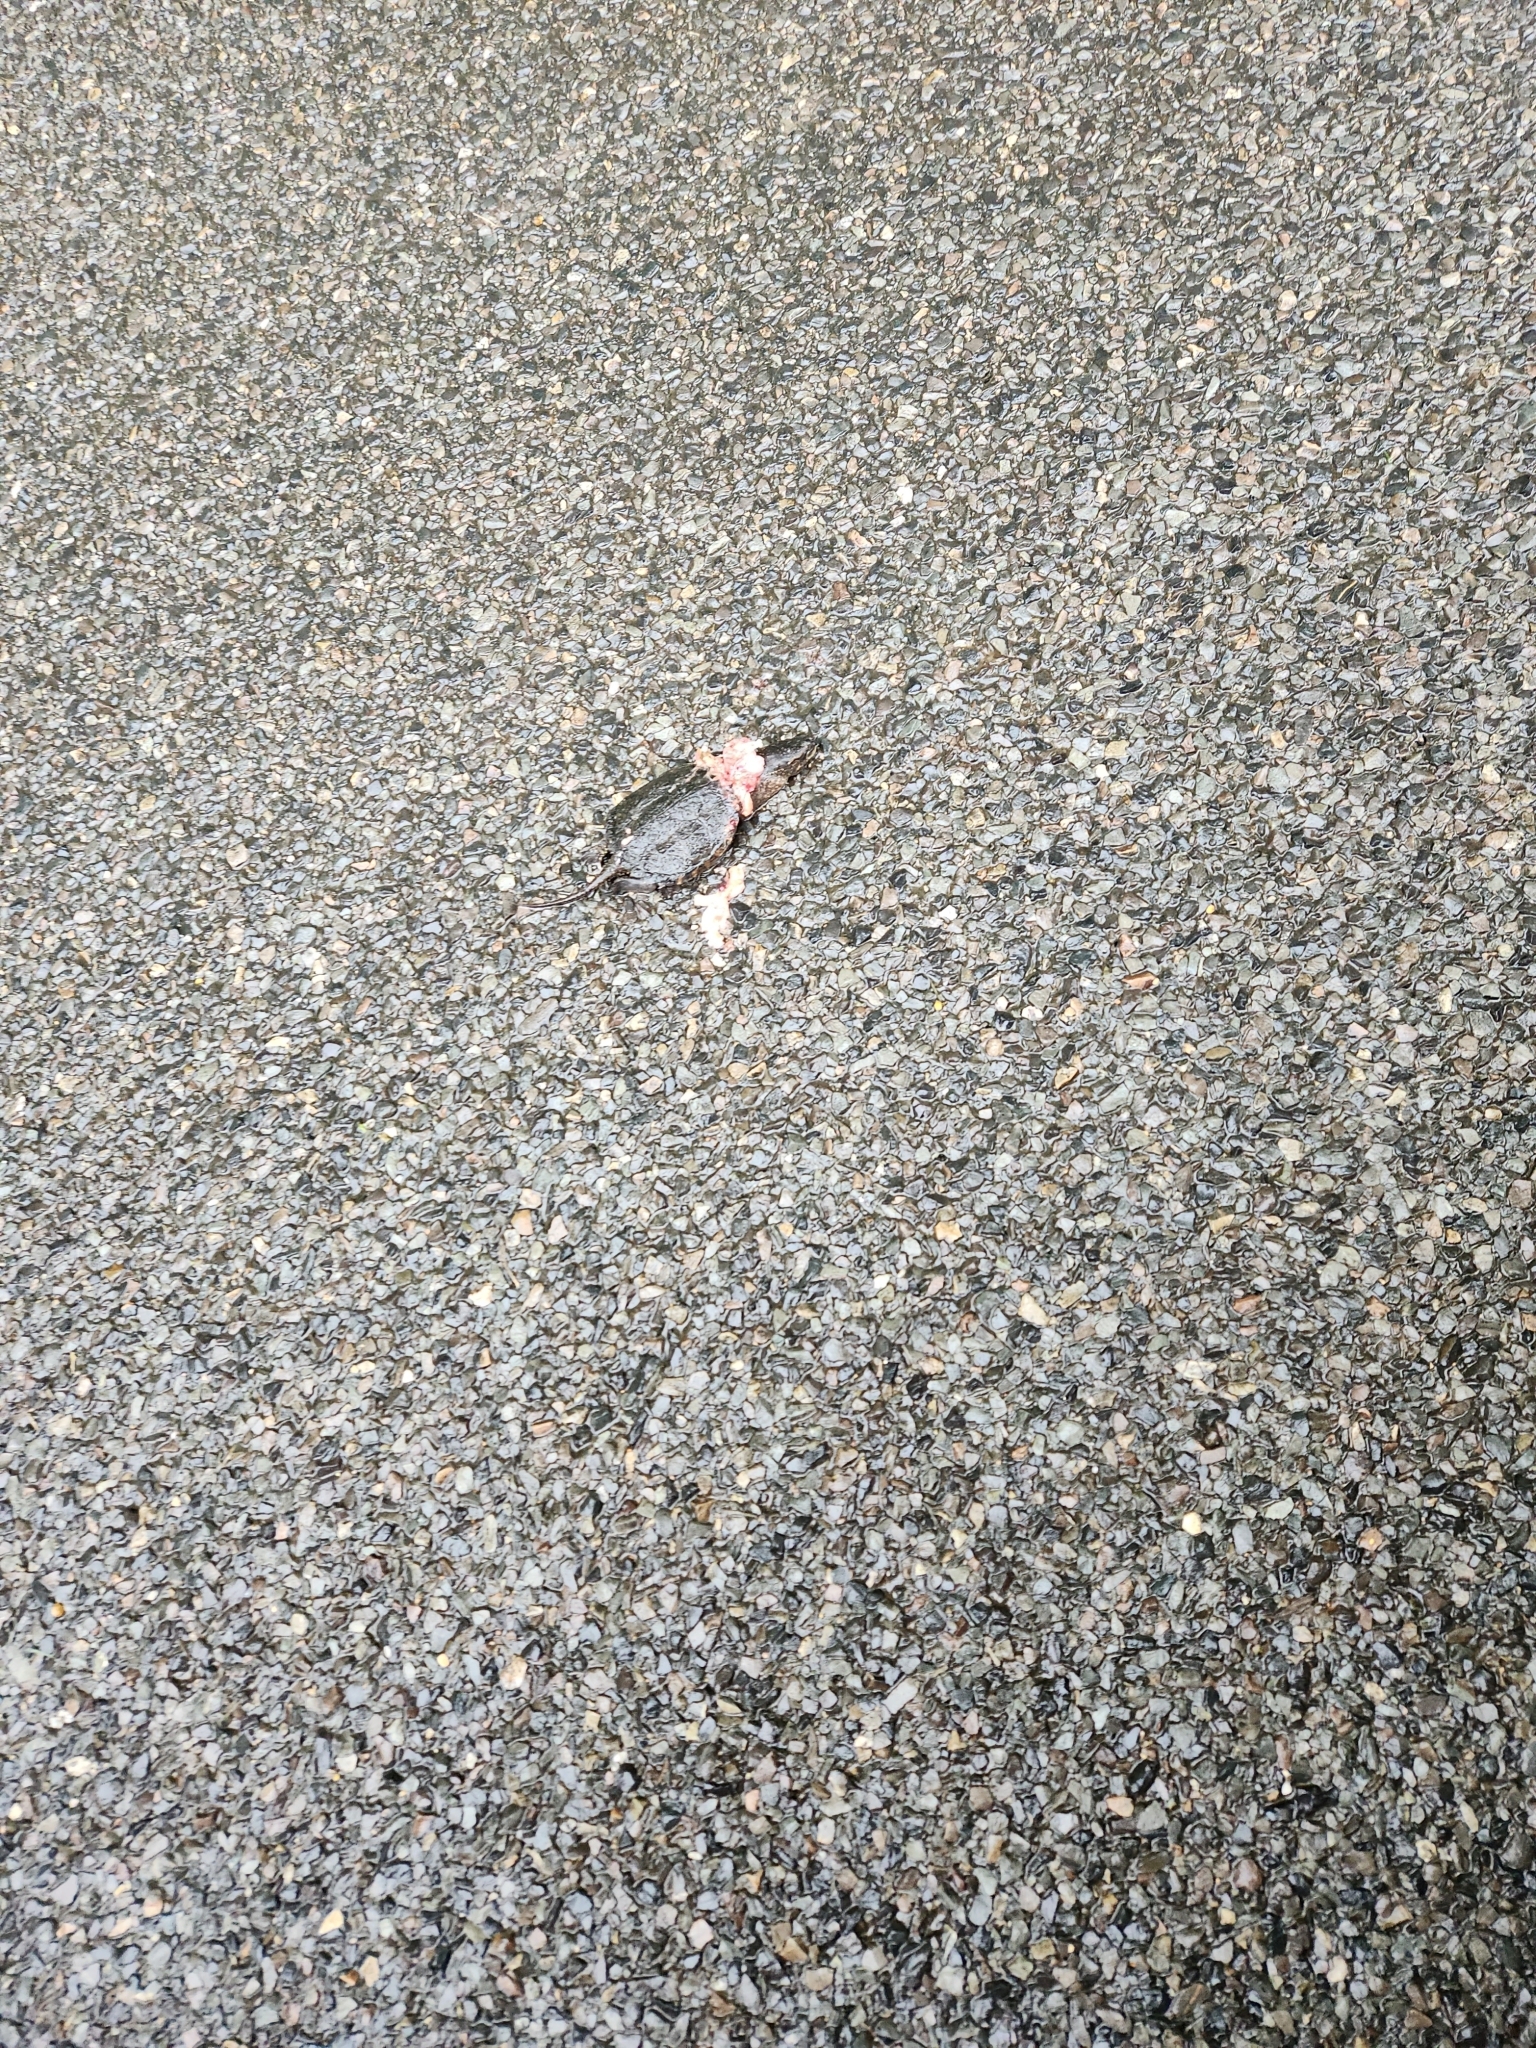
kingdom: Animalia
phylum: Chordata
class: Testudines
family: Chelydridae
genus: Chelydra
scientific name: Chelydra serpentina
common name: Common snapping turtle
